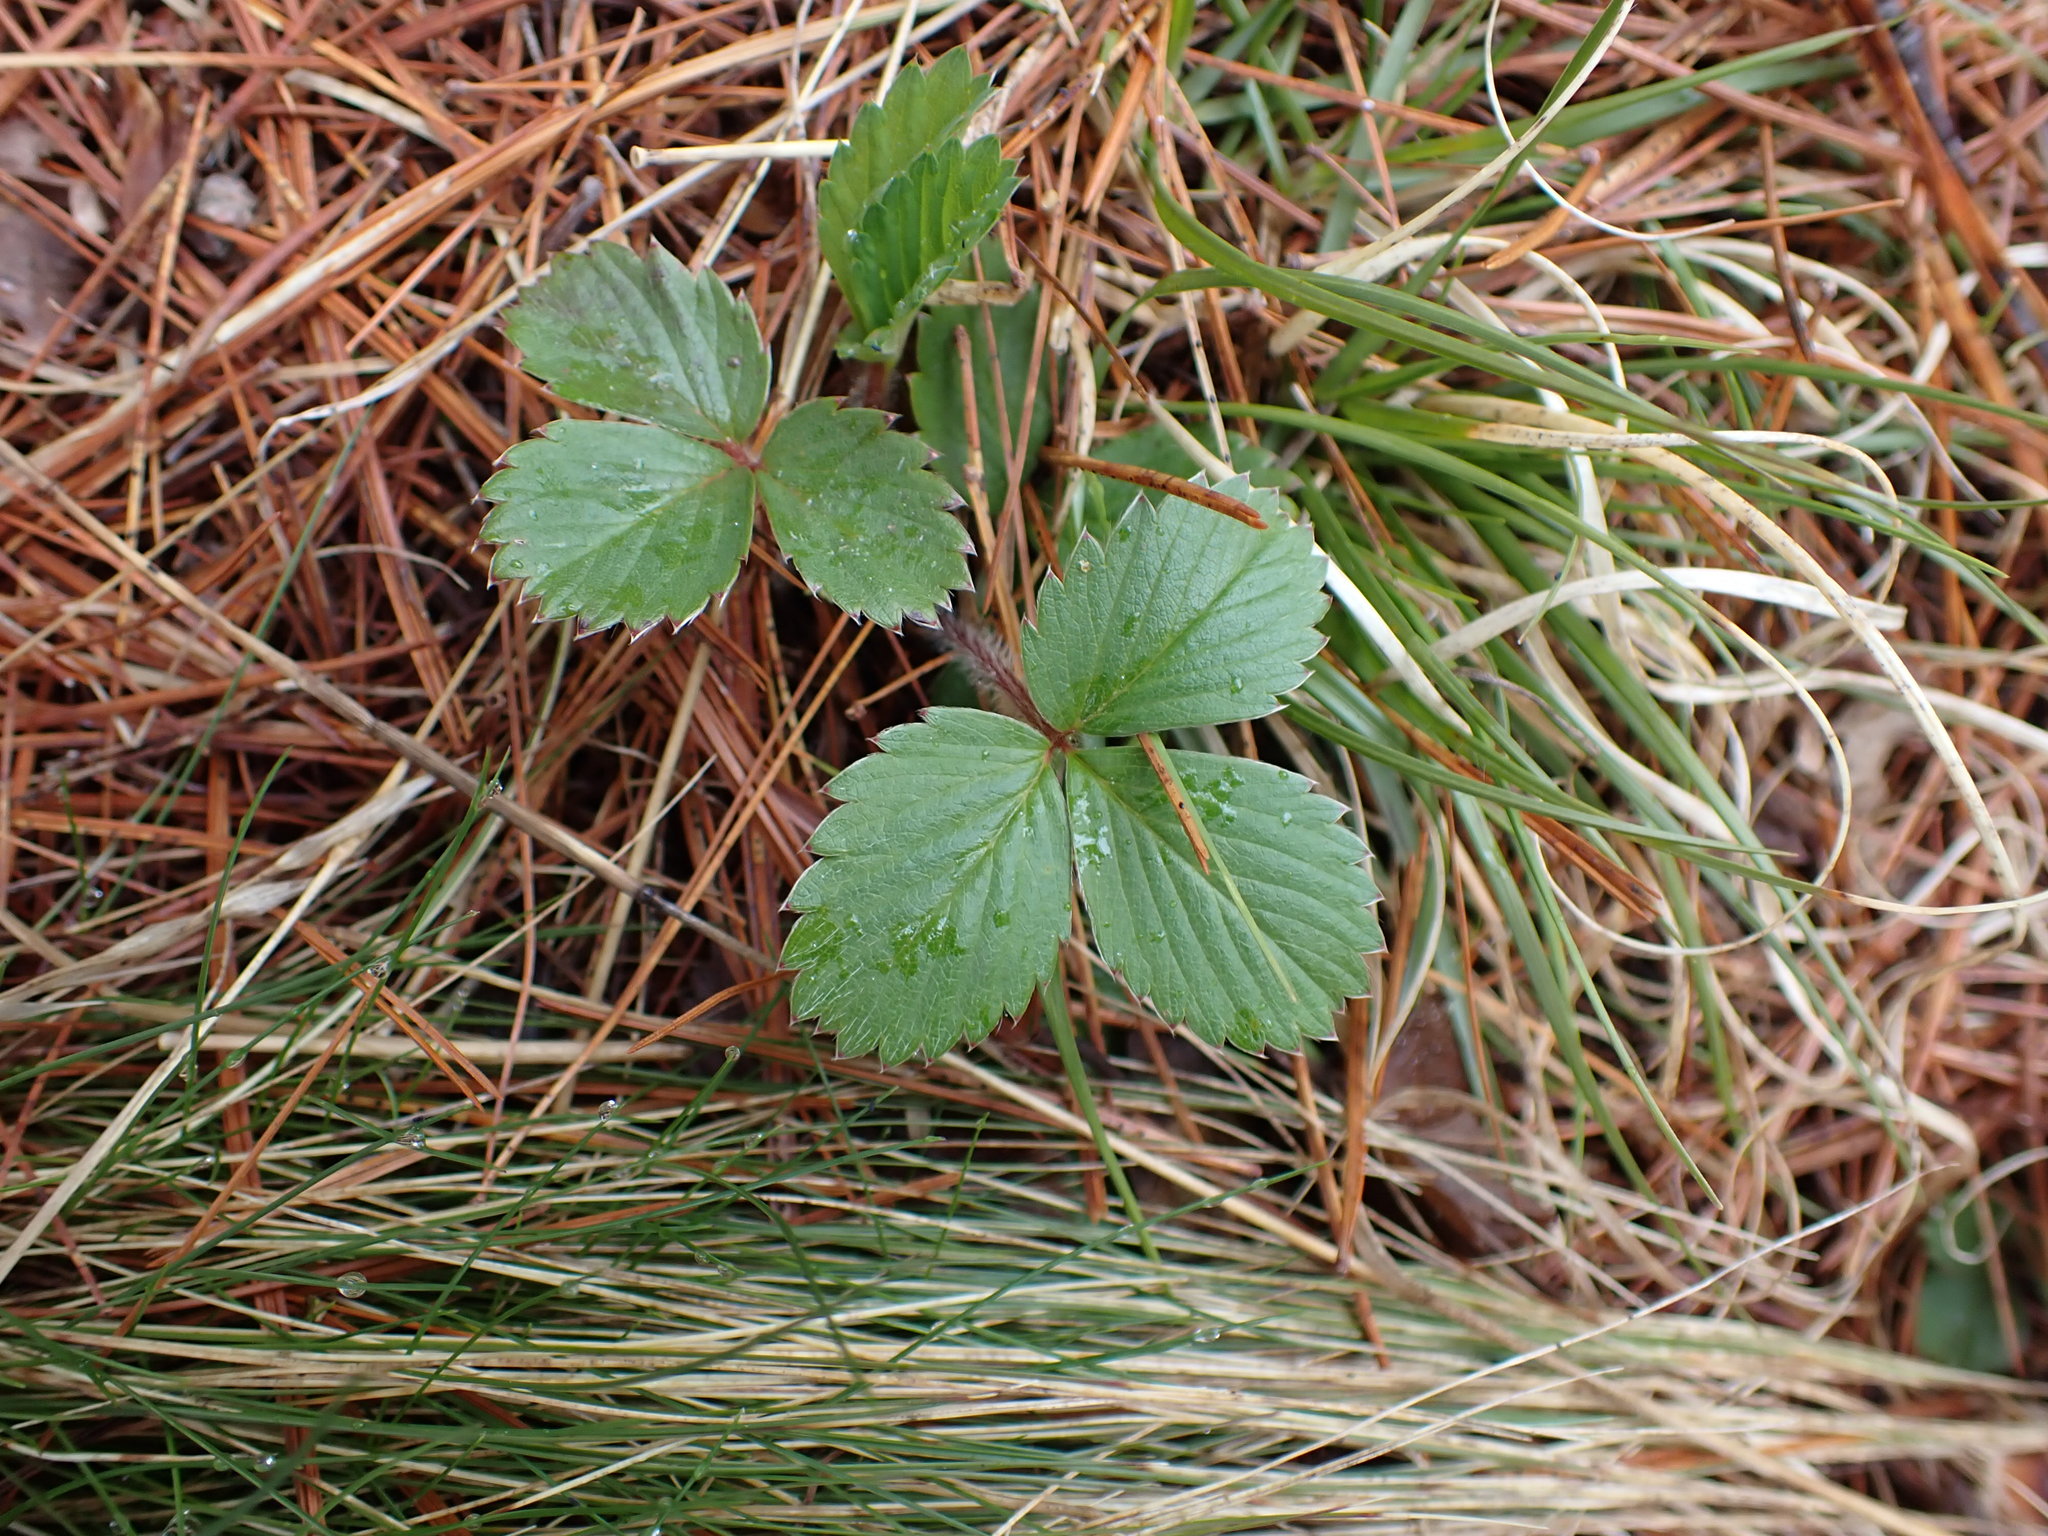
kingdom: Plantae
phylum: Tracheophyta
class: Magnoliopsida
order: Rosales
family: Rosaceae
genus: Fragaria
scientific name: Fragaria virginiana
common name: Thickleaved wild strawberry
